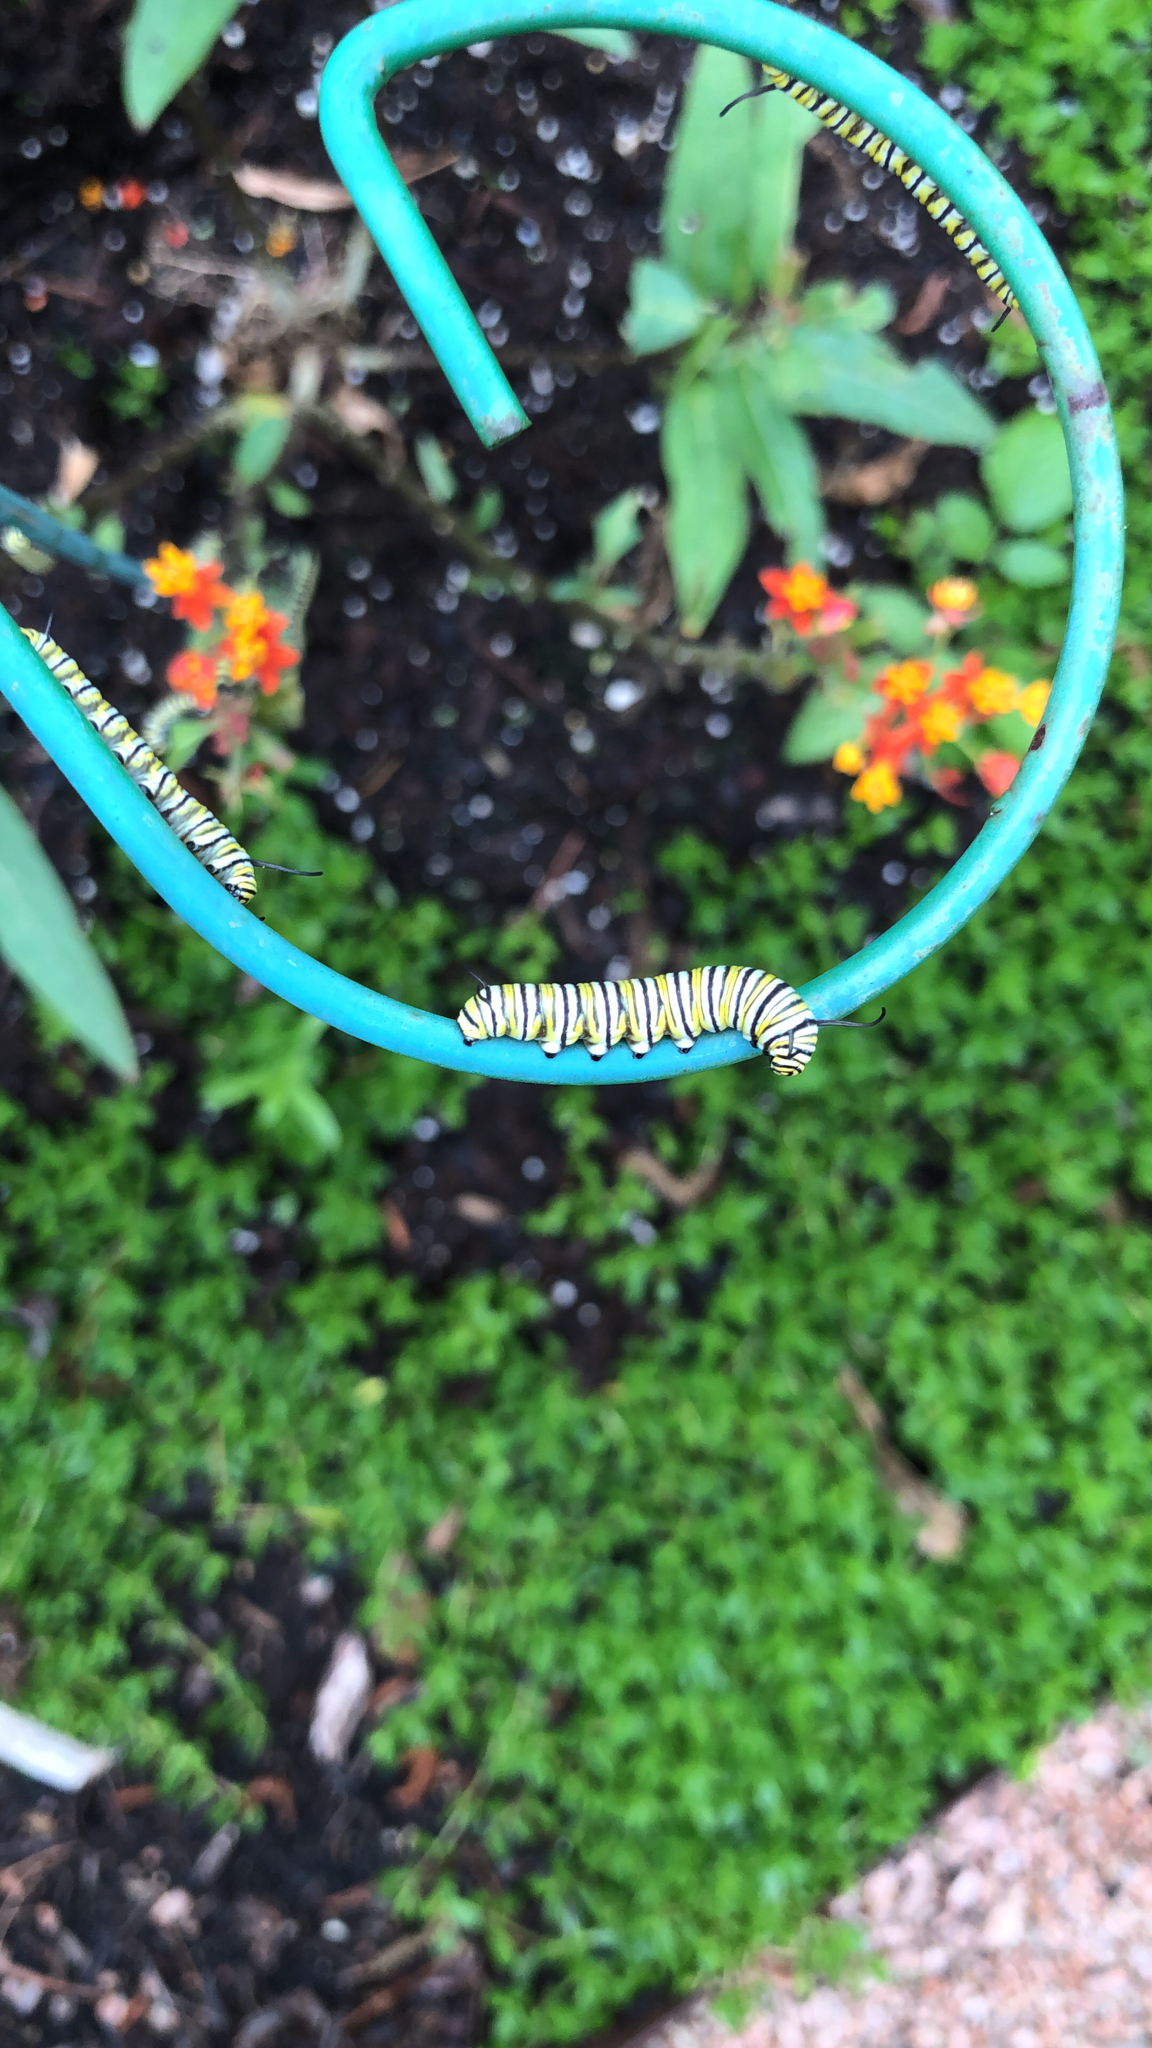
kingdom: Animalia
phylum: Arthropoda
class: Insecta
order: Lepidoptera
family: Nymphalidae
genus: Danaus
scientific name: Danaus plexippus
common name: Monarch
